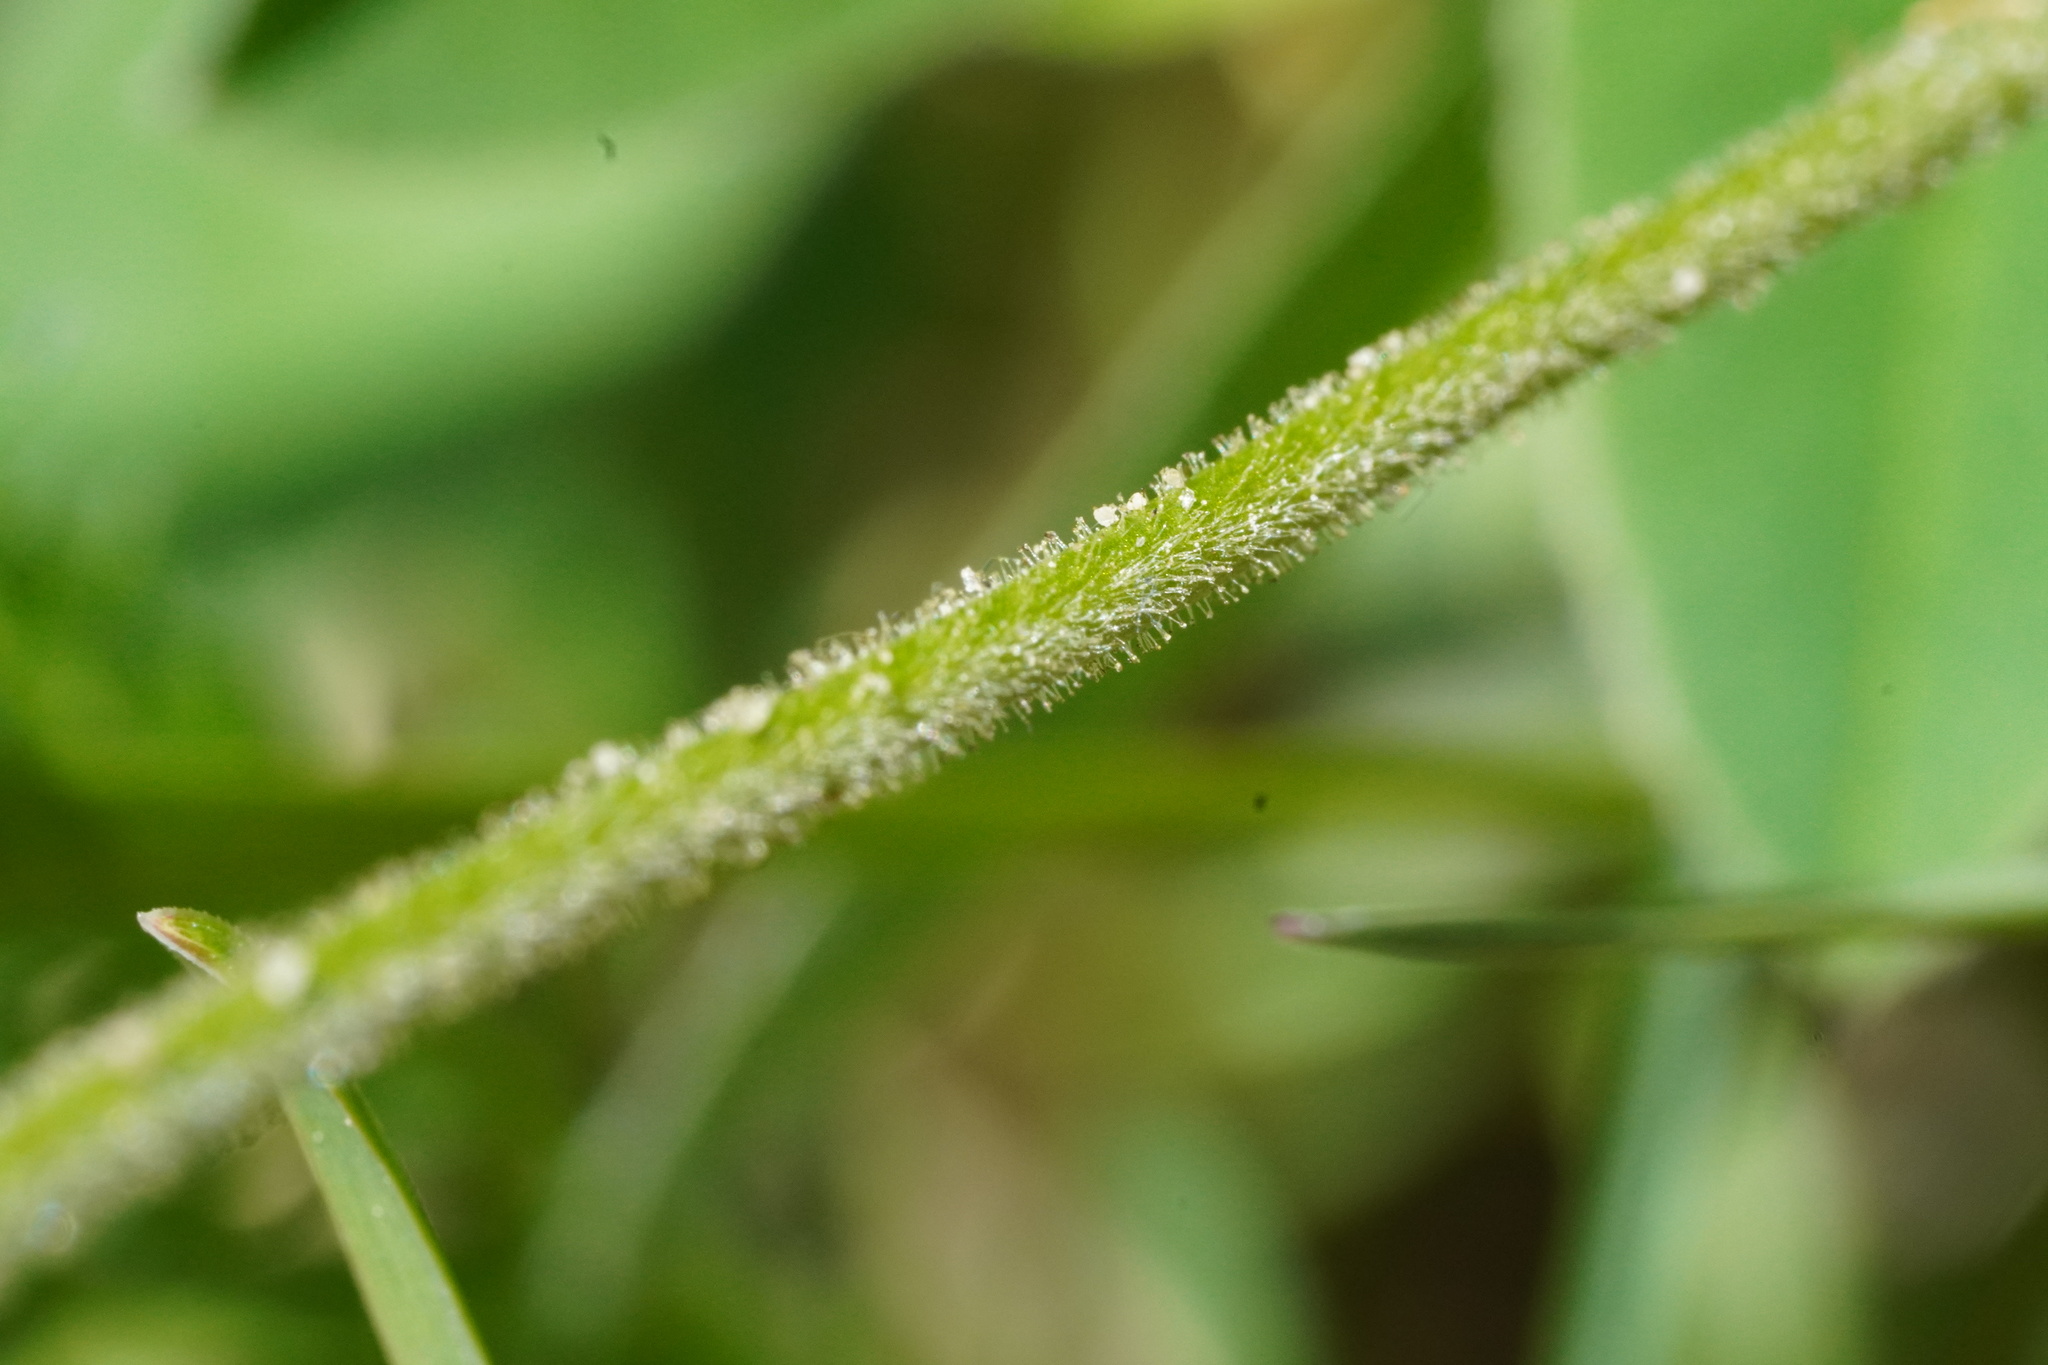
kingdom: Plantae
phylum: Tracheophyta
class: Magnoliopsida
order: Caryophyllales
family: Caryophyllaceae
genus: Cerastium
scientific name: Cerastium arvense
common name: Field mouse-ear
